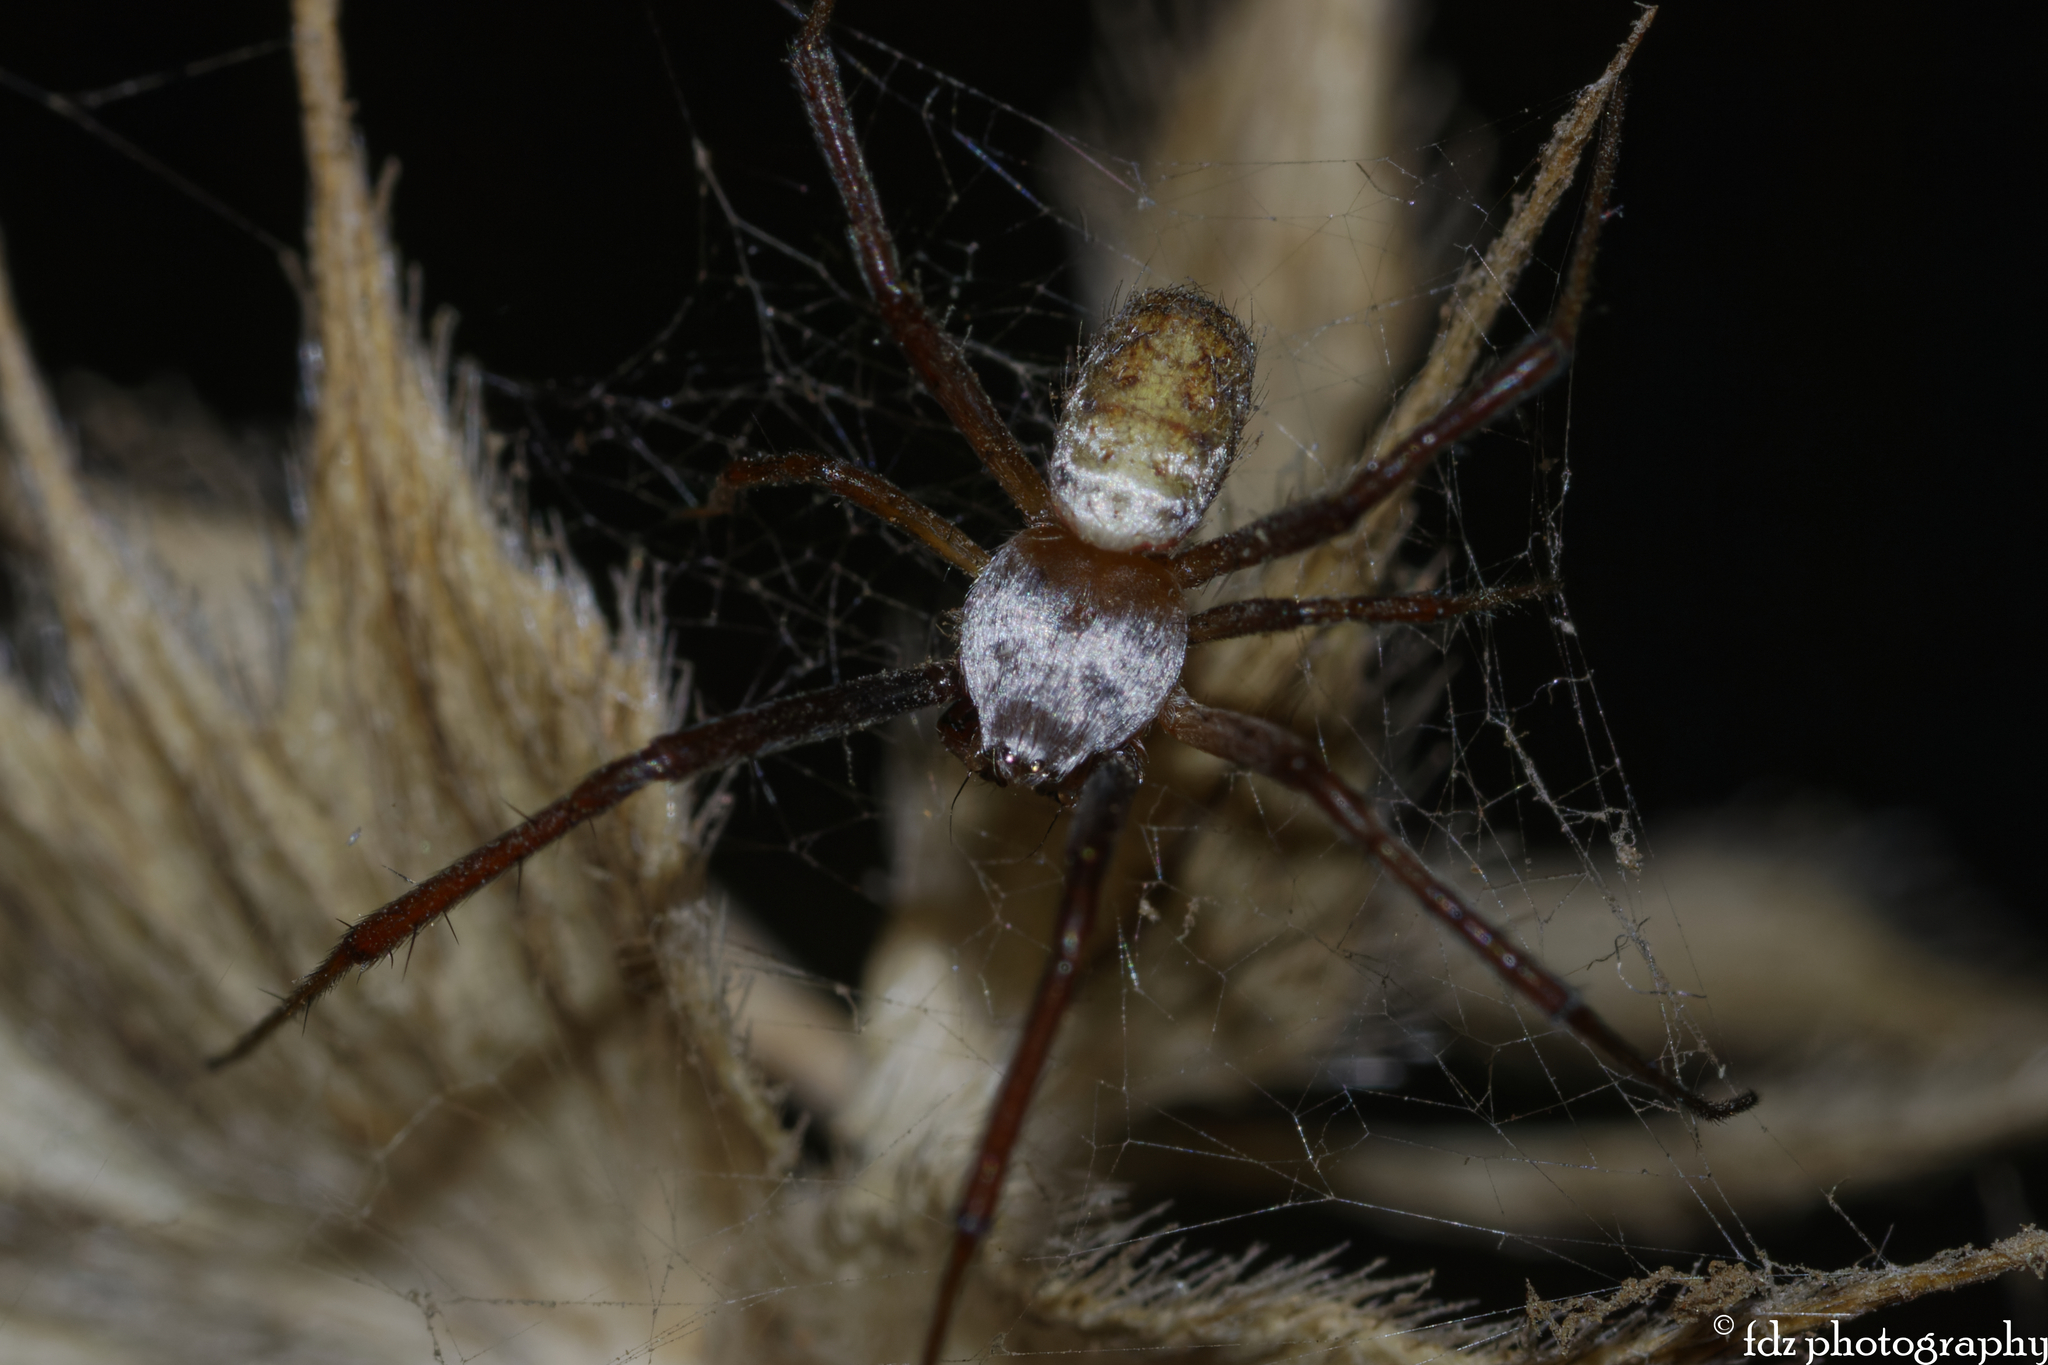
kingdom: Animalia
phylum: Arthropoda
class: Arachnida
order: Araneae
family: Araneidae
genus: Argiope
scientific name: Argiope trifasciata
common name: Banded garden spider
